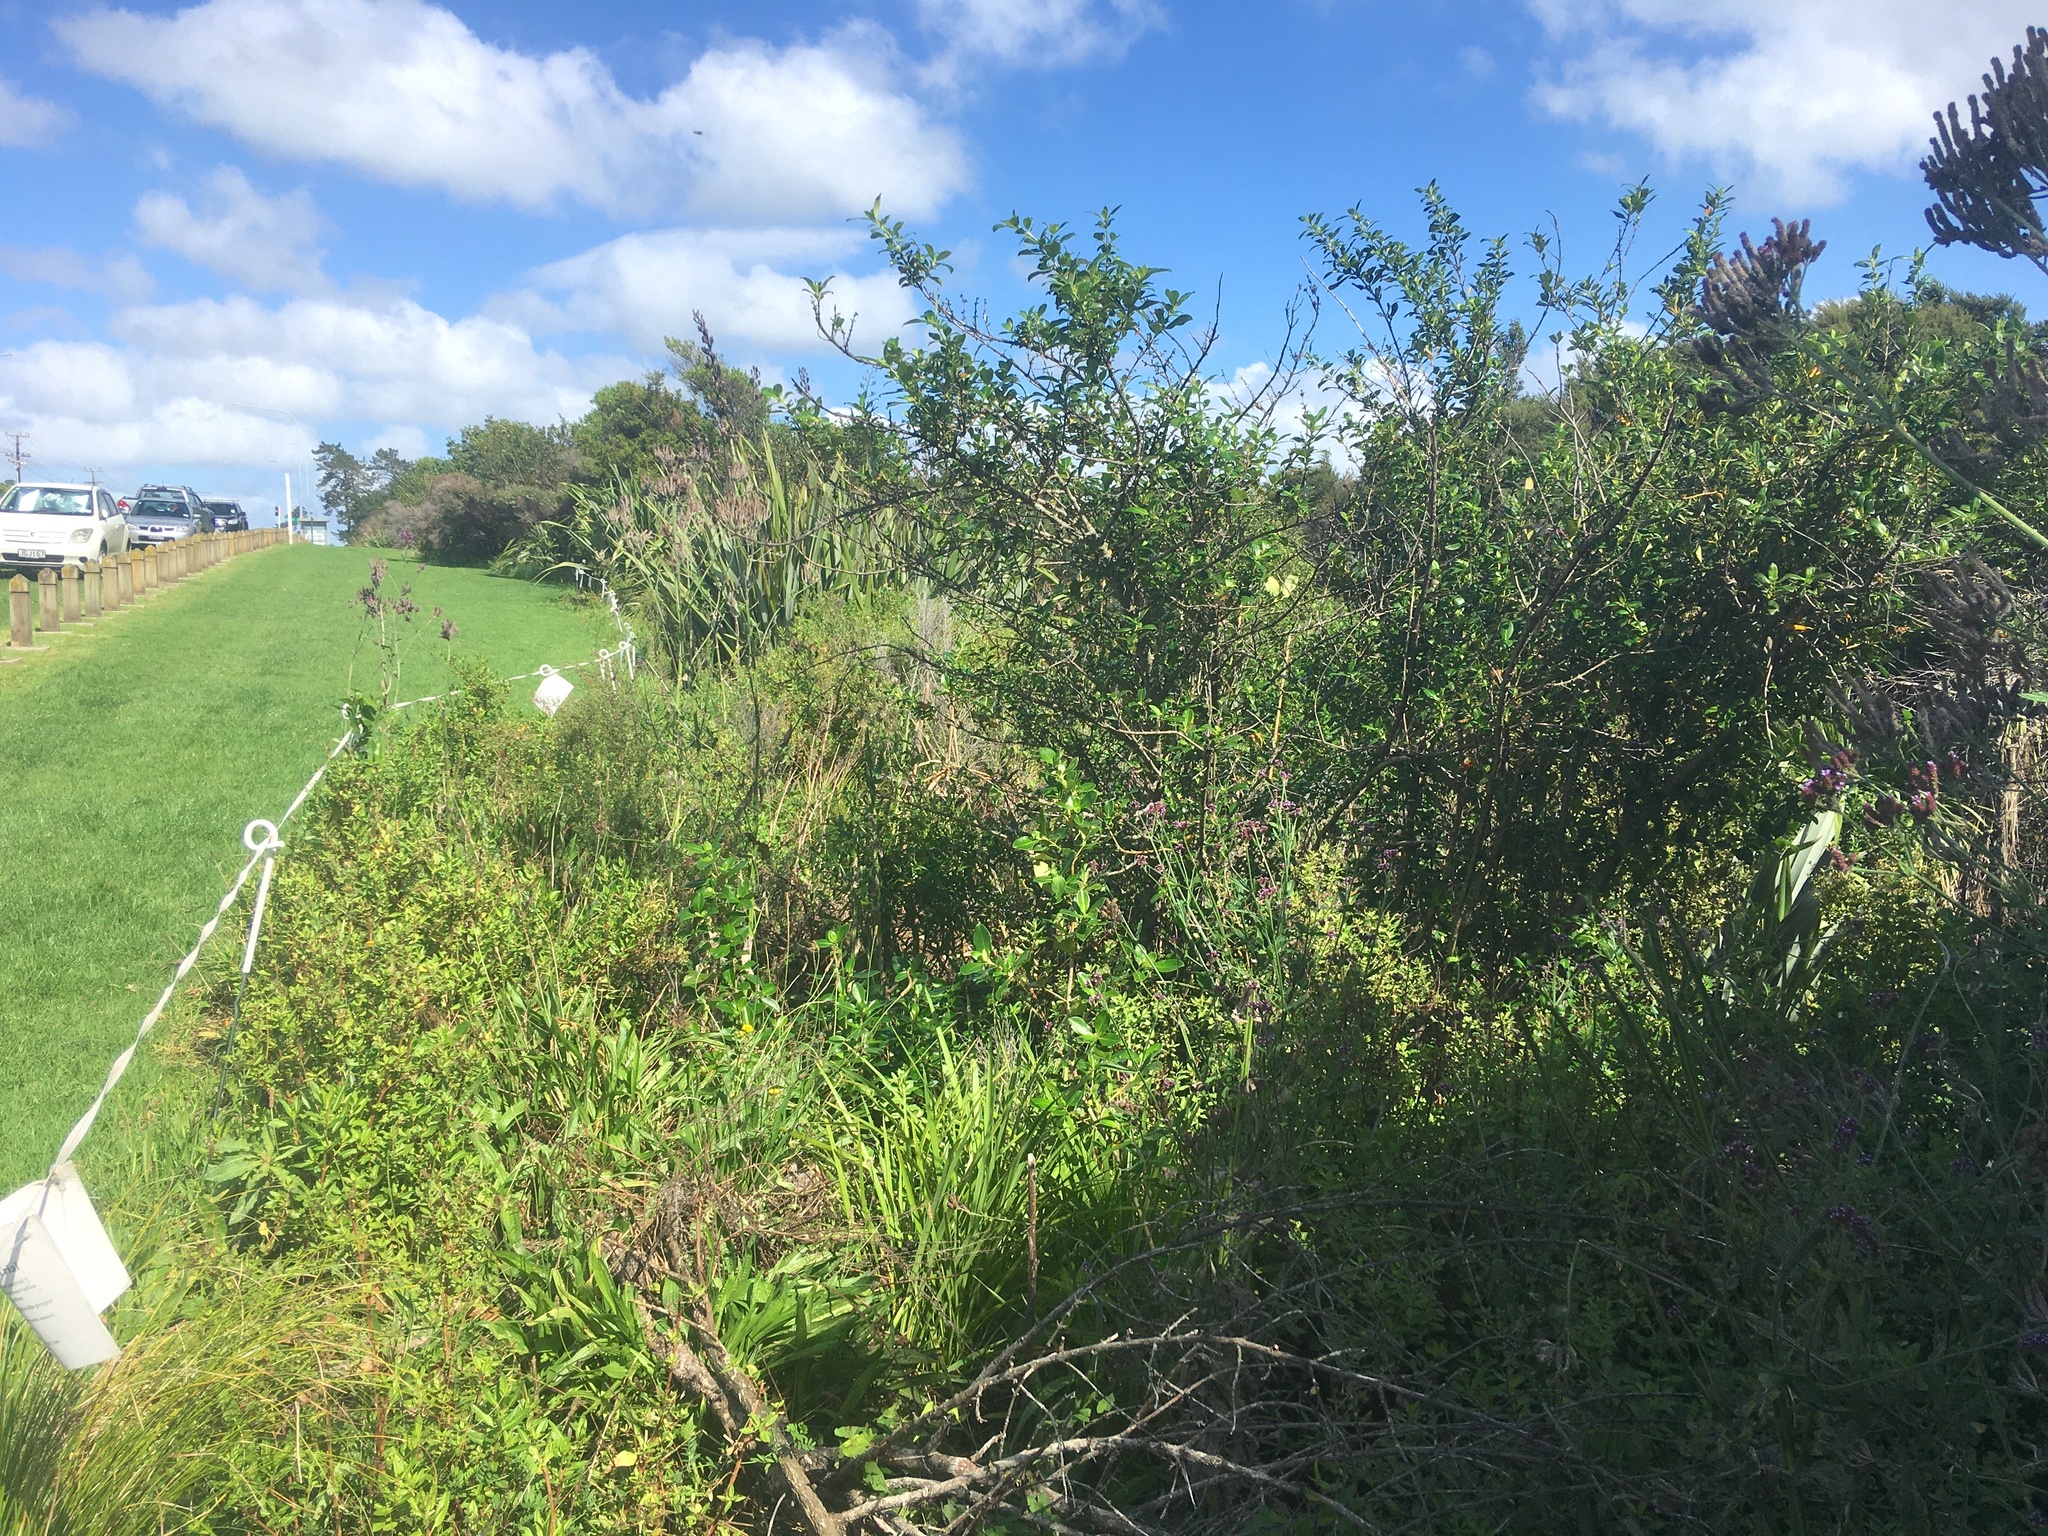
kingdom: Plantae
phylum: Tracheophyta
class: Magnoliopsida
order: Gentianales
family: Rubiaceae
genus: Coprosma
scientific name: Coprosma robusta
